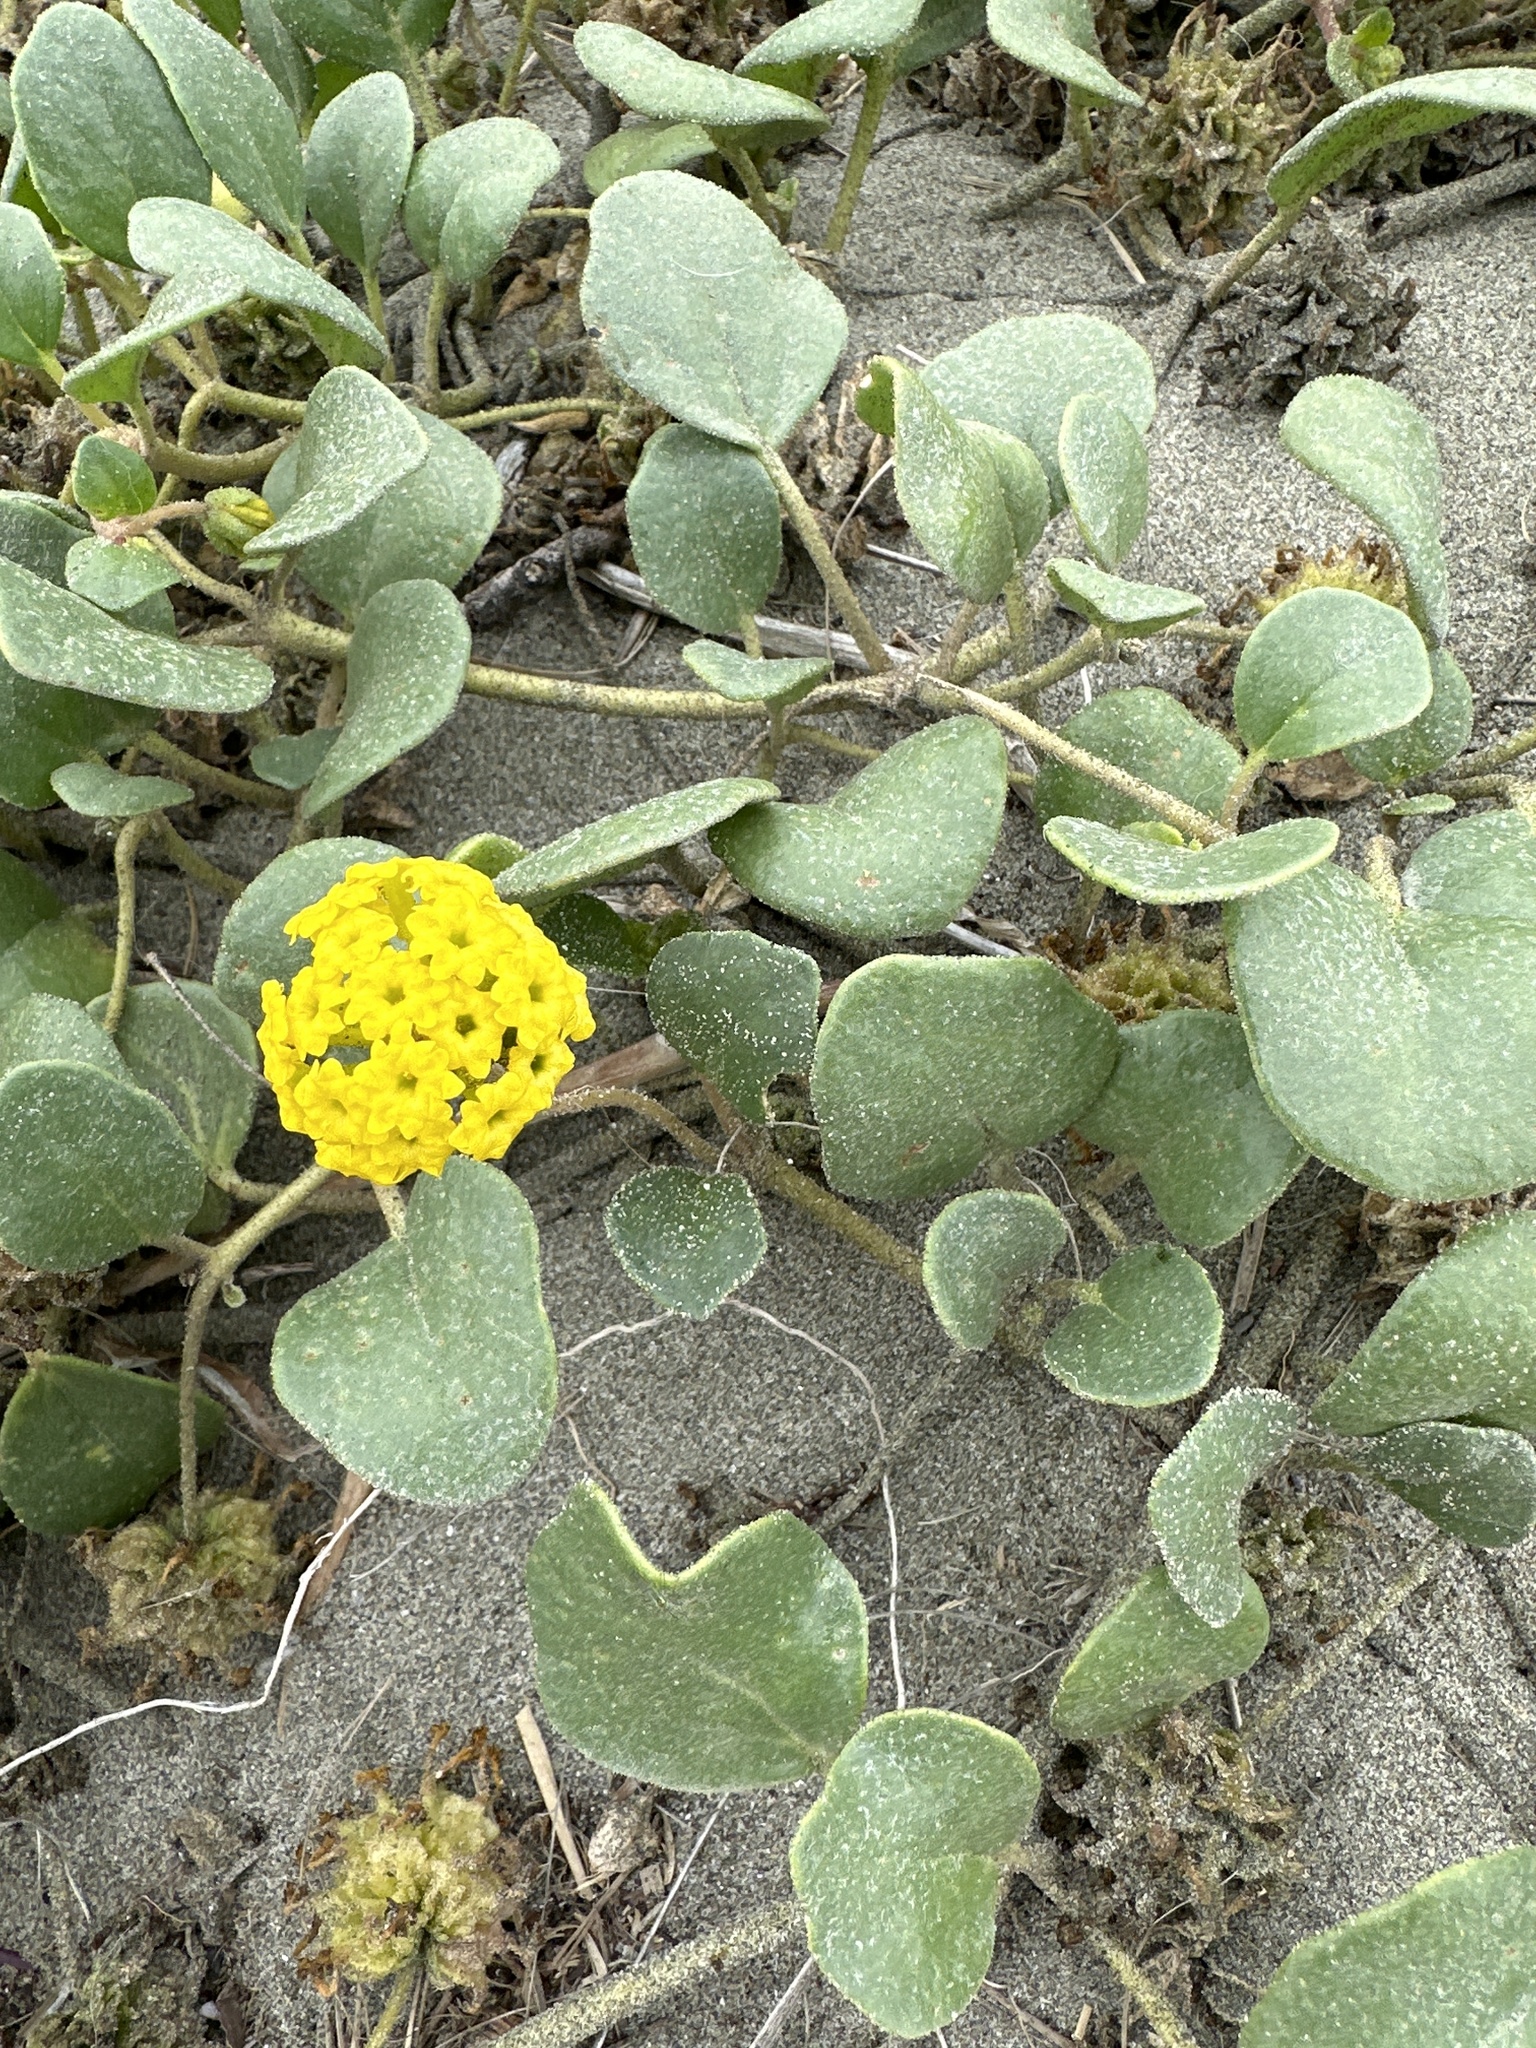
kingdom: Plantae
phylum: Tracheophyta
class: Magnoliopsida
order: Caryophyllales
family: Nyctaginaceae
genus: Abronia
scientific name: Abronia latifolia
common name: Yellow sand-verbena
